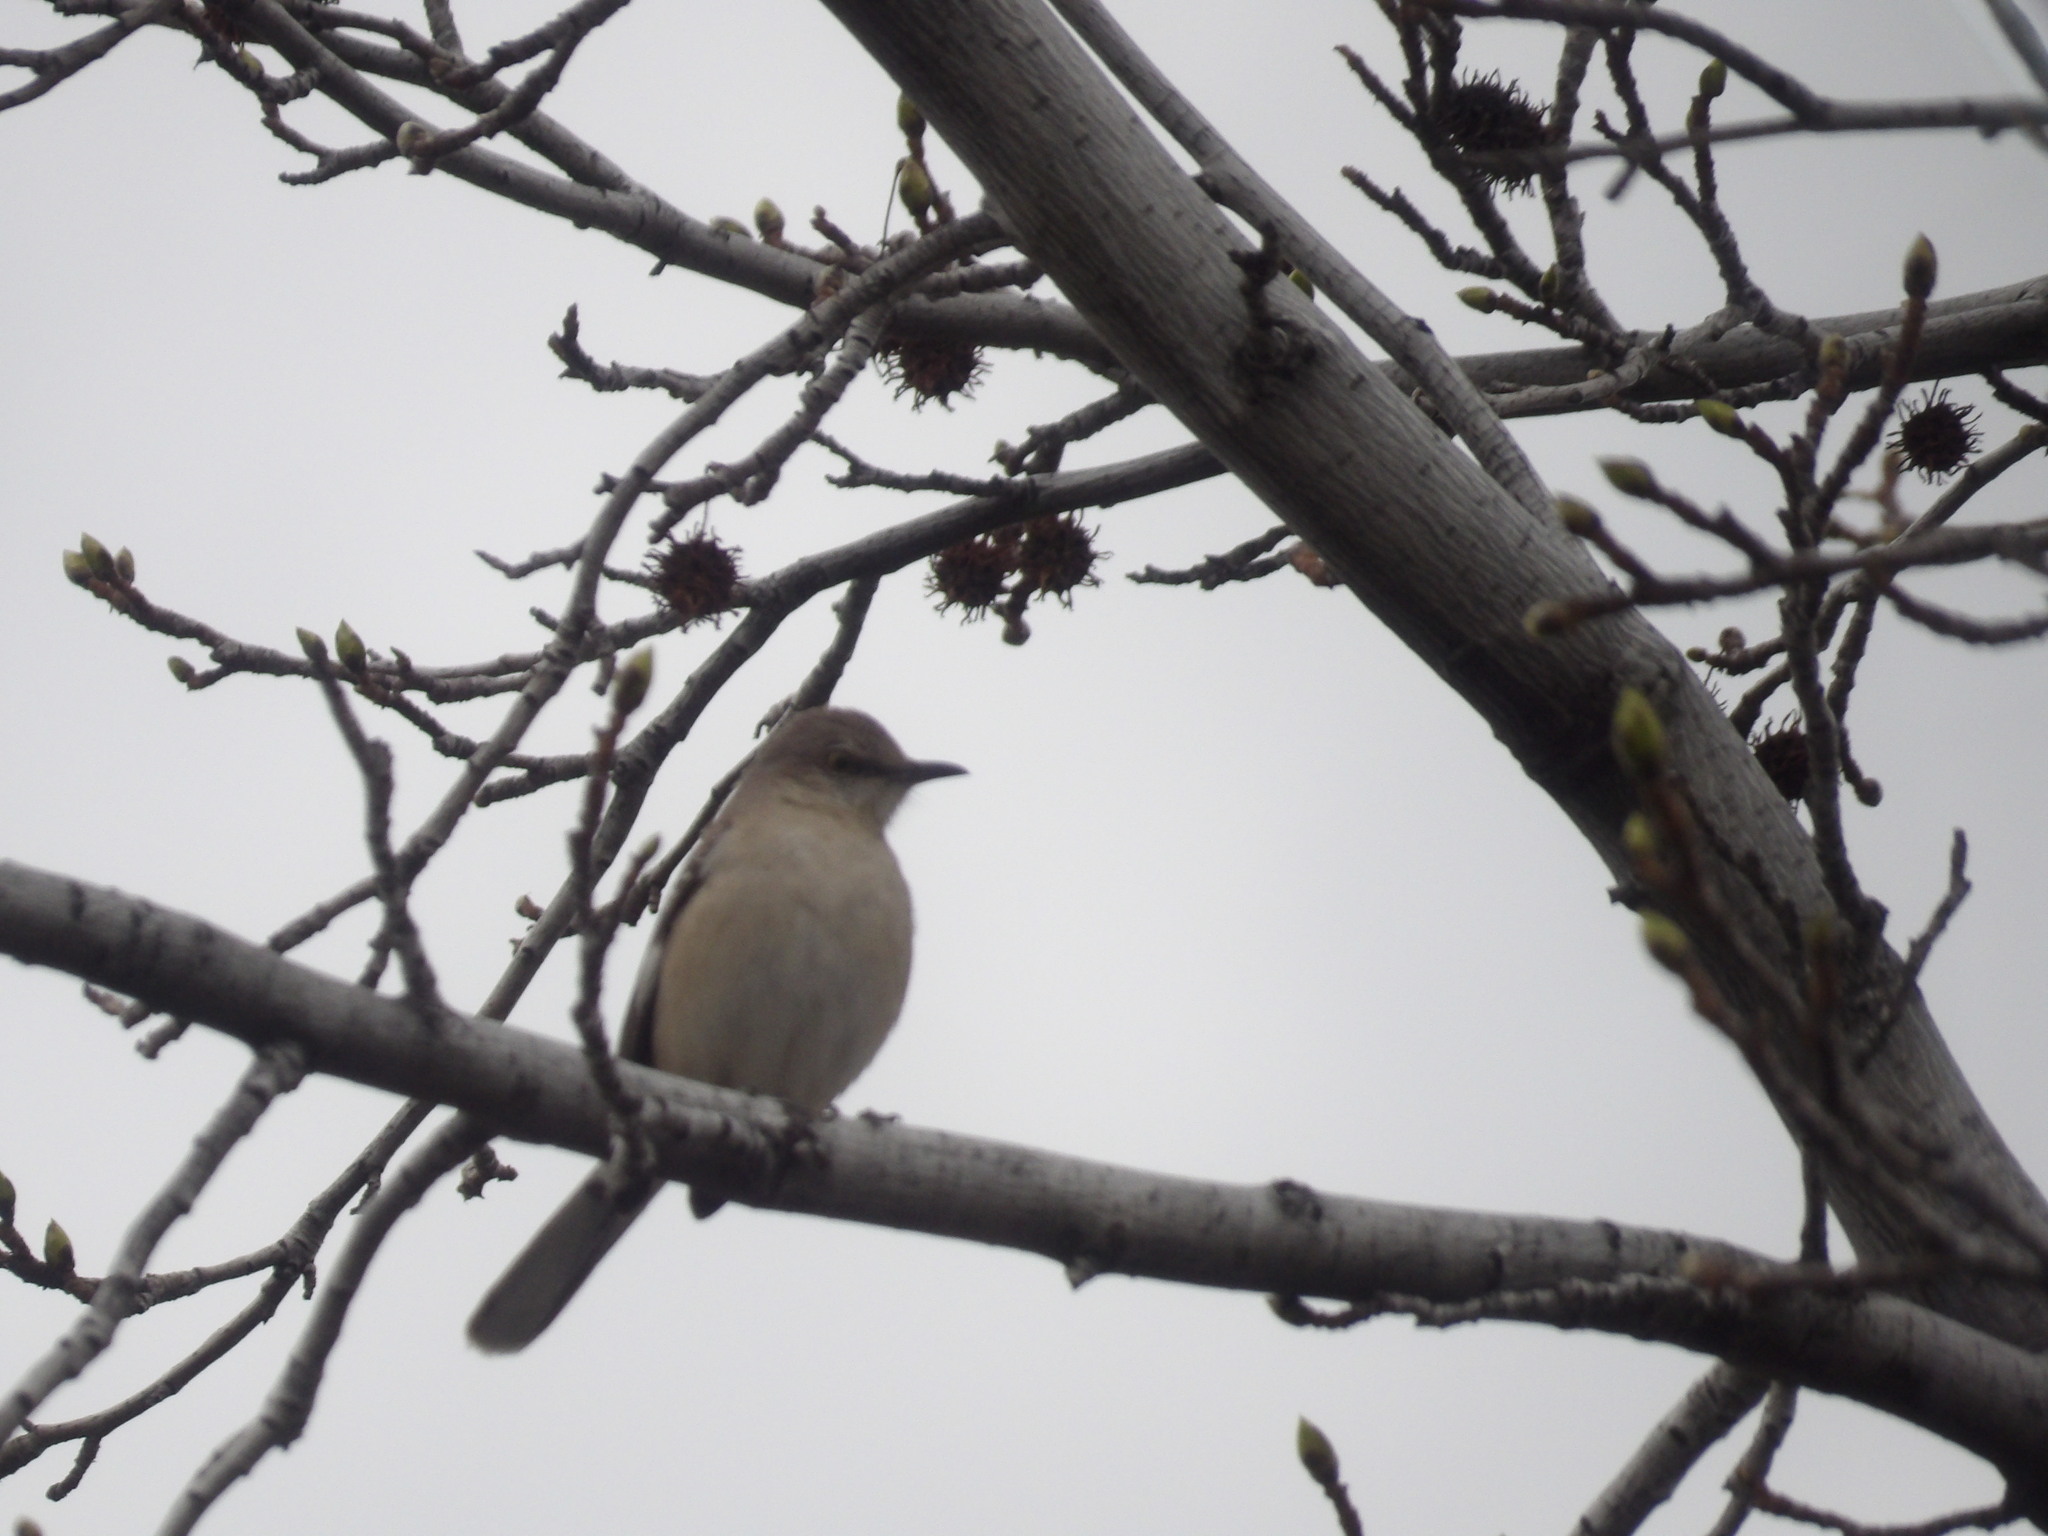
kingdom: Animalia
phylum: Chordata
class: Aves
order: Passeriformes
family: Mimidae
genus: Mimus
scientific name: Mimus polyglottos
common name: Northern mockingbird
